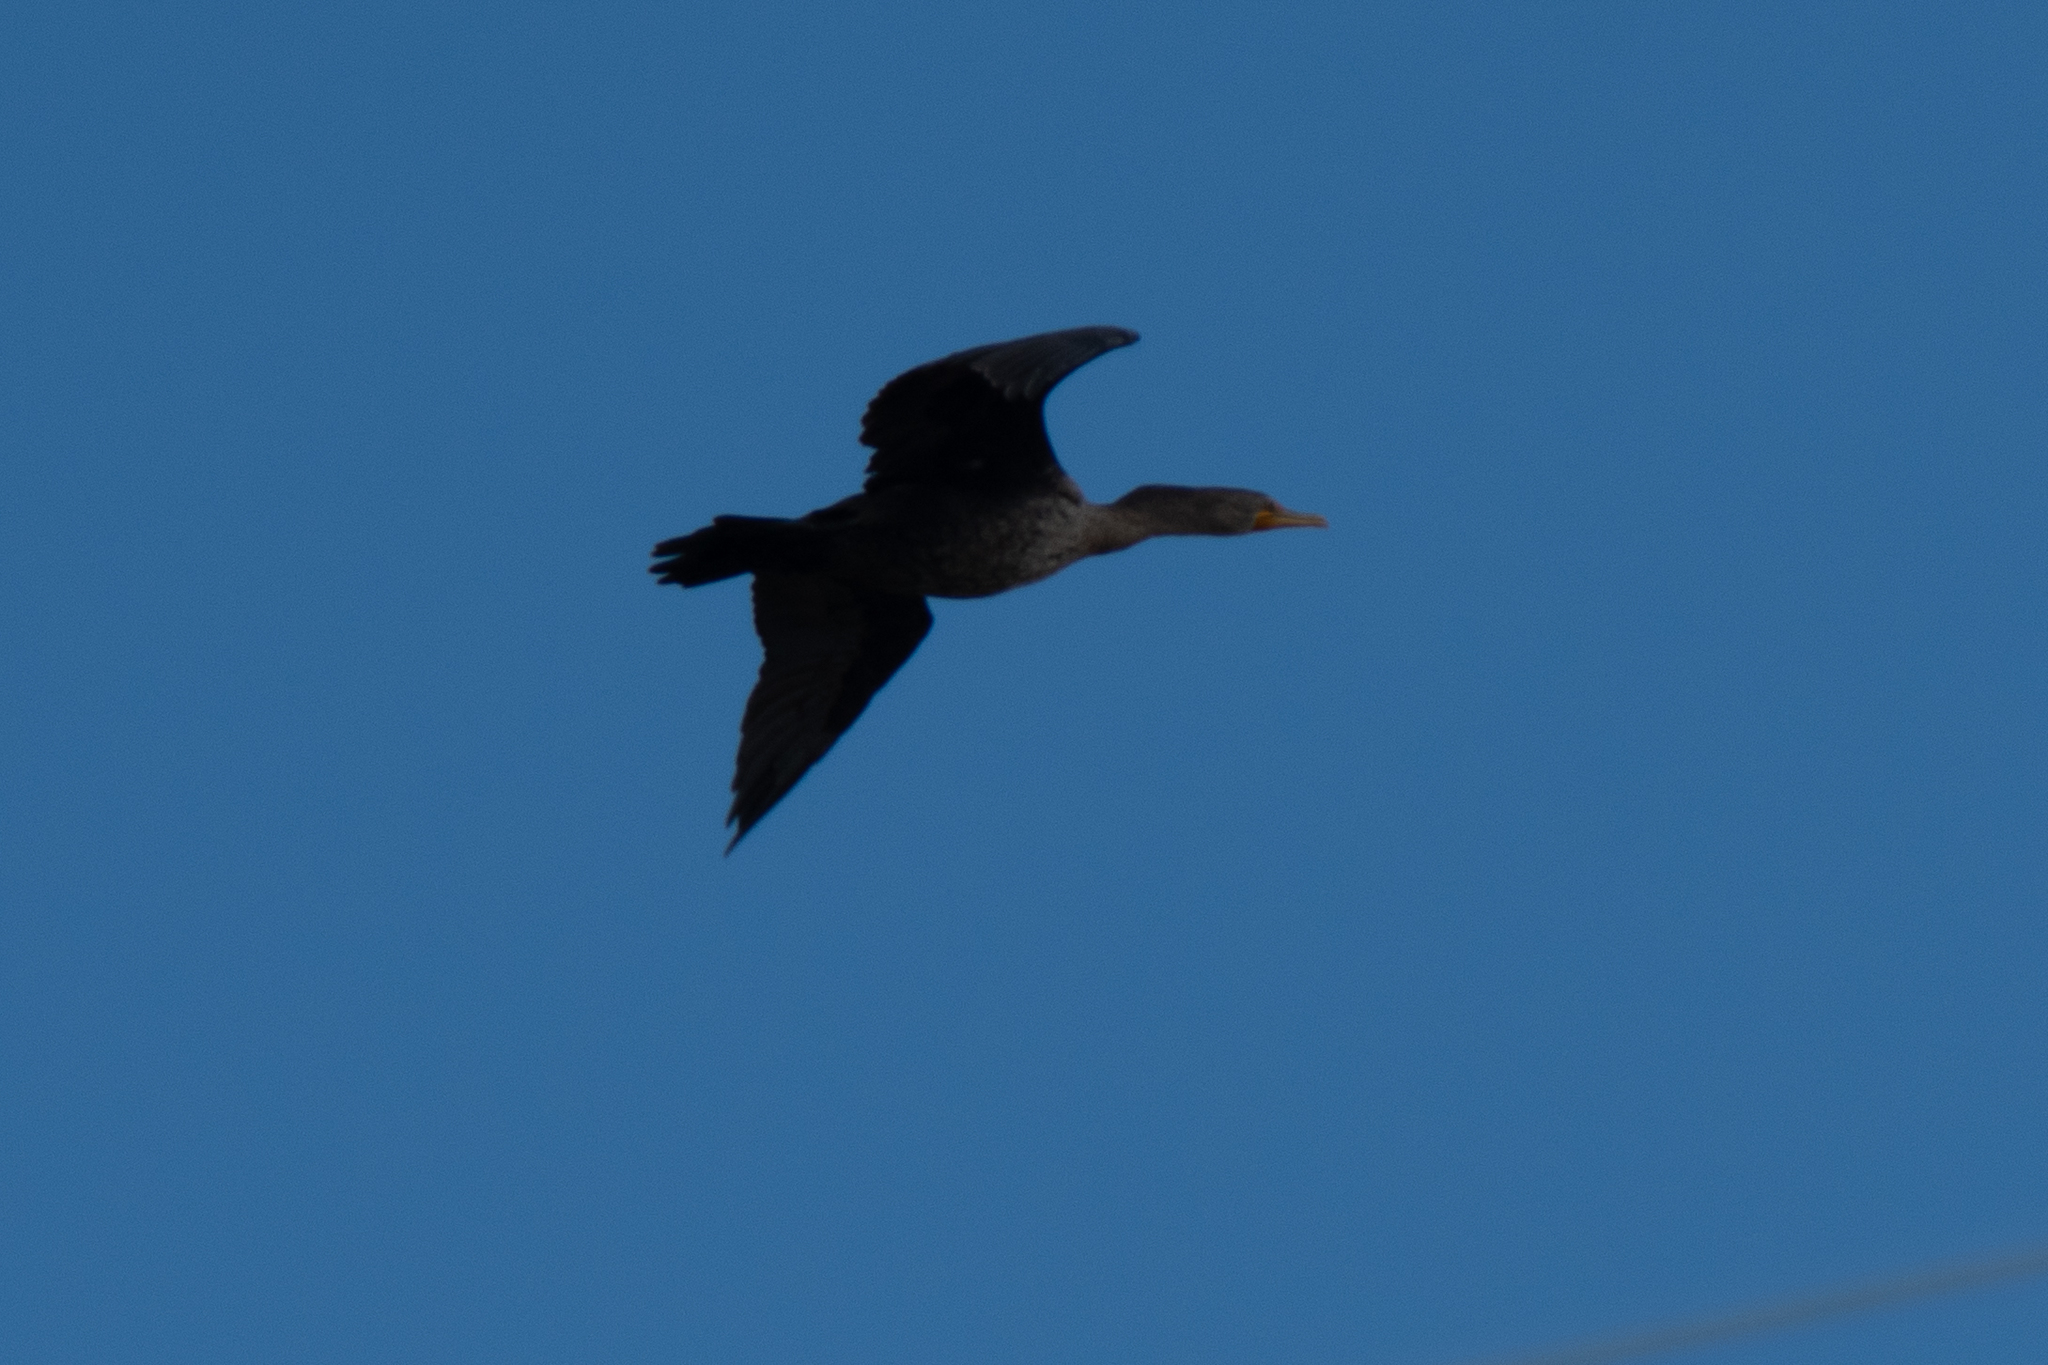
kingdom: Animalia
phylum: Chordata
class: Aves
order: Suliformes
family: Phalacrocoracidae
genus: Phalacrocorax
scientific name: Phalacrocorax auritus
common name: Double-crested cormorant
